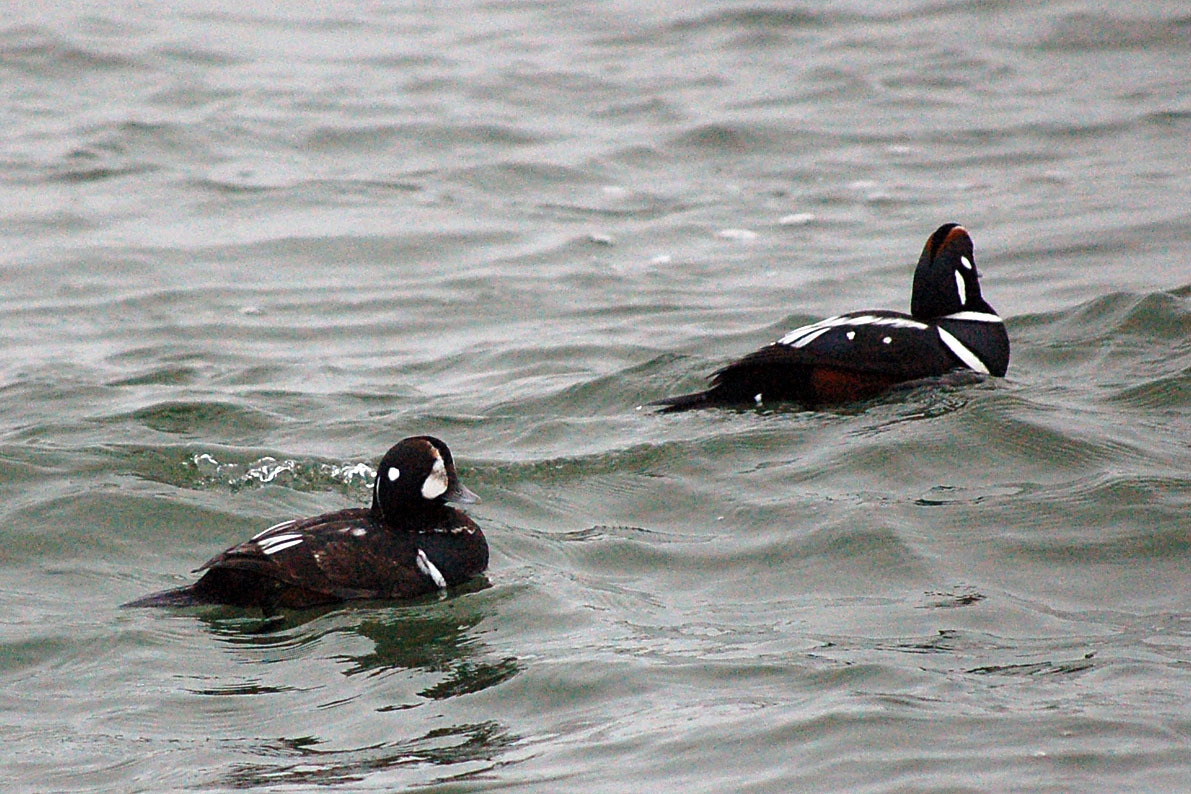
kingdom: Animalia
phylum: Chordata
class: Aves
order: Anseriformes
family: Anatidae
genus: Histrionicus
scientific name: Histrionicus histrionicus
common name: Harlequin duck
